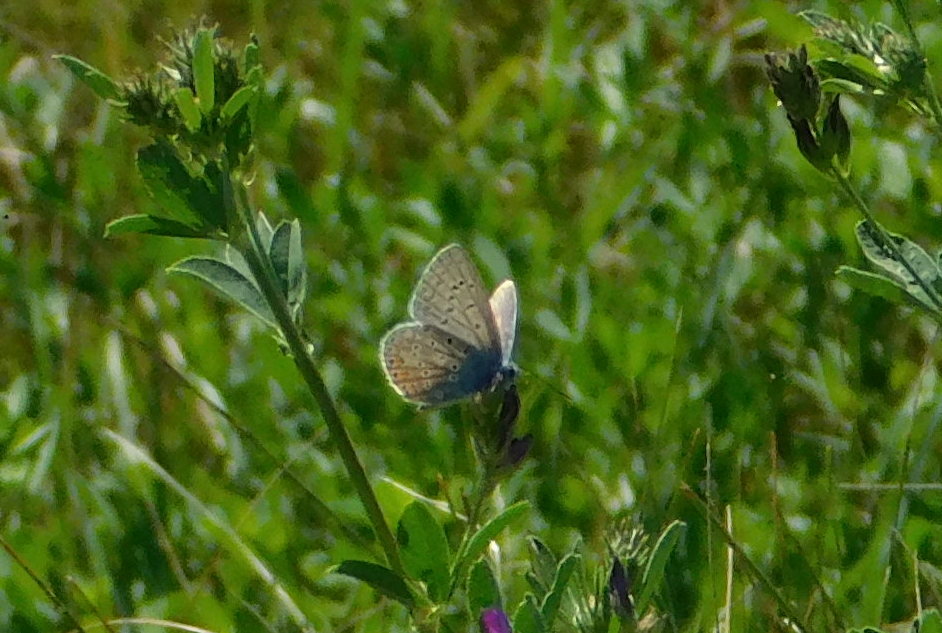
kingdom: Animalia
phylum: Arthropoda
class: Insecta
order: Lepidoptera
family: Lycaenidae
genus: Polyommatus
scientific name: Polyommatus icarus
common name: Common blue
